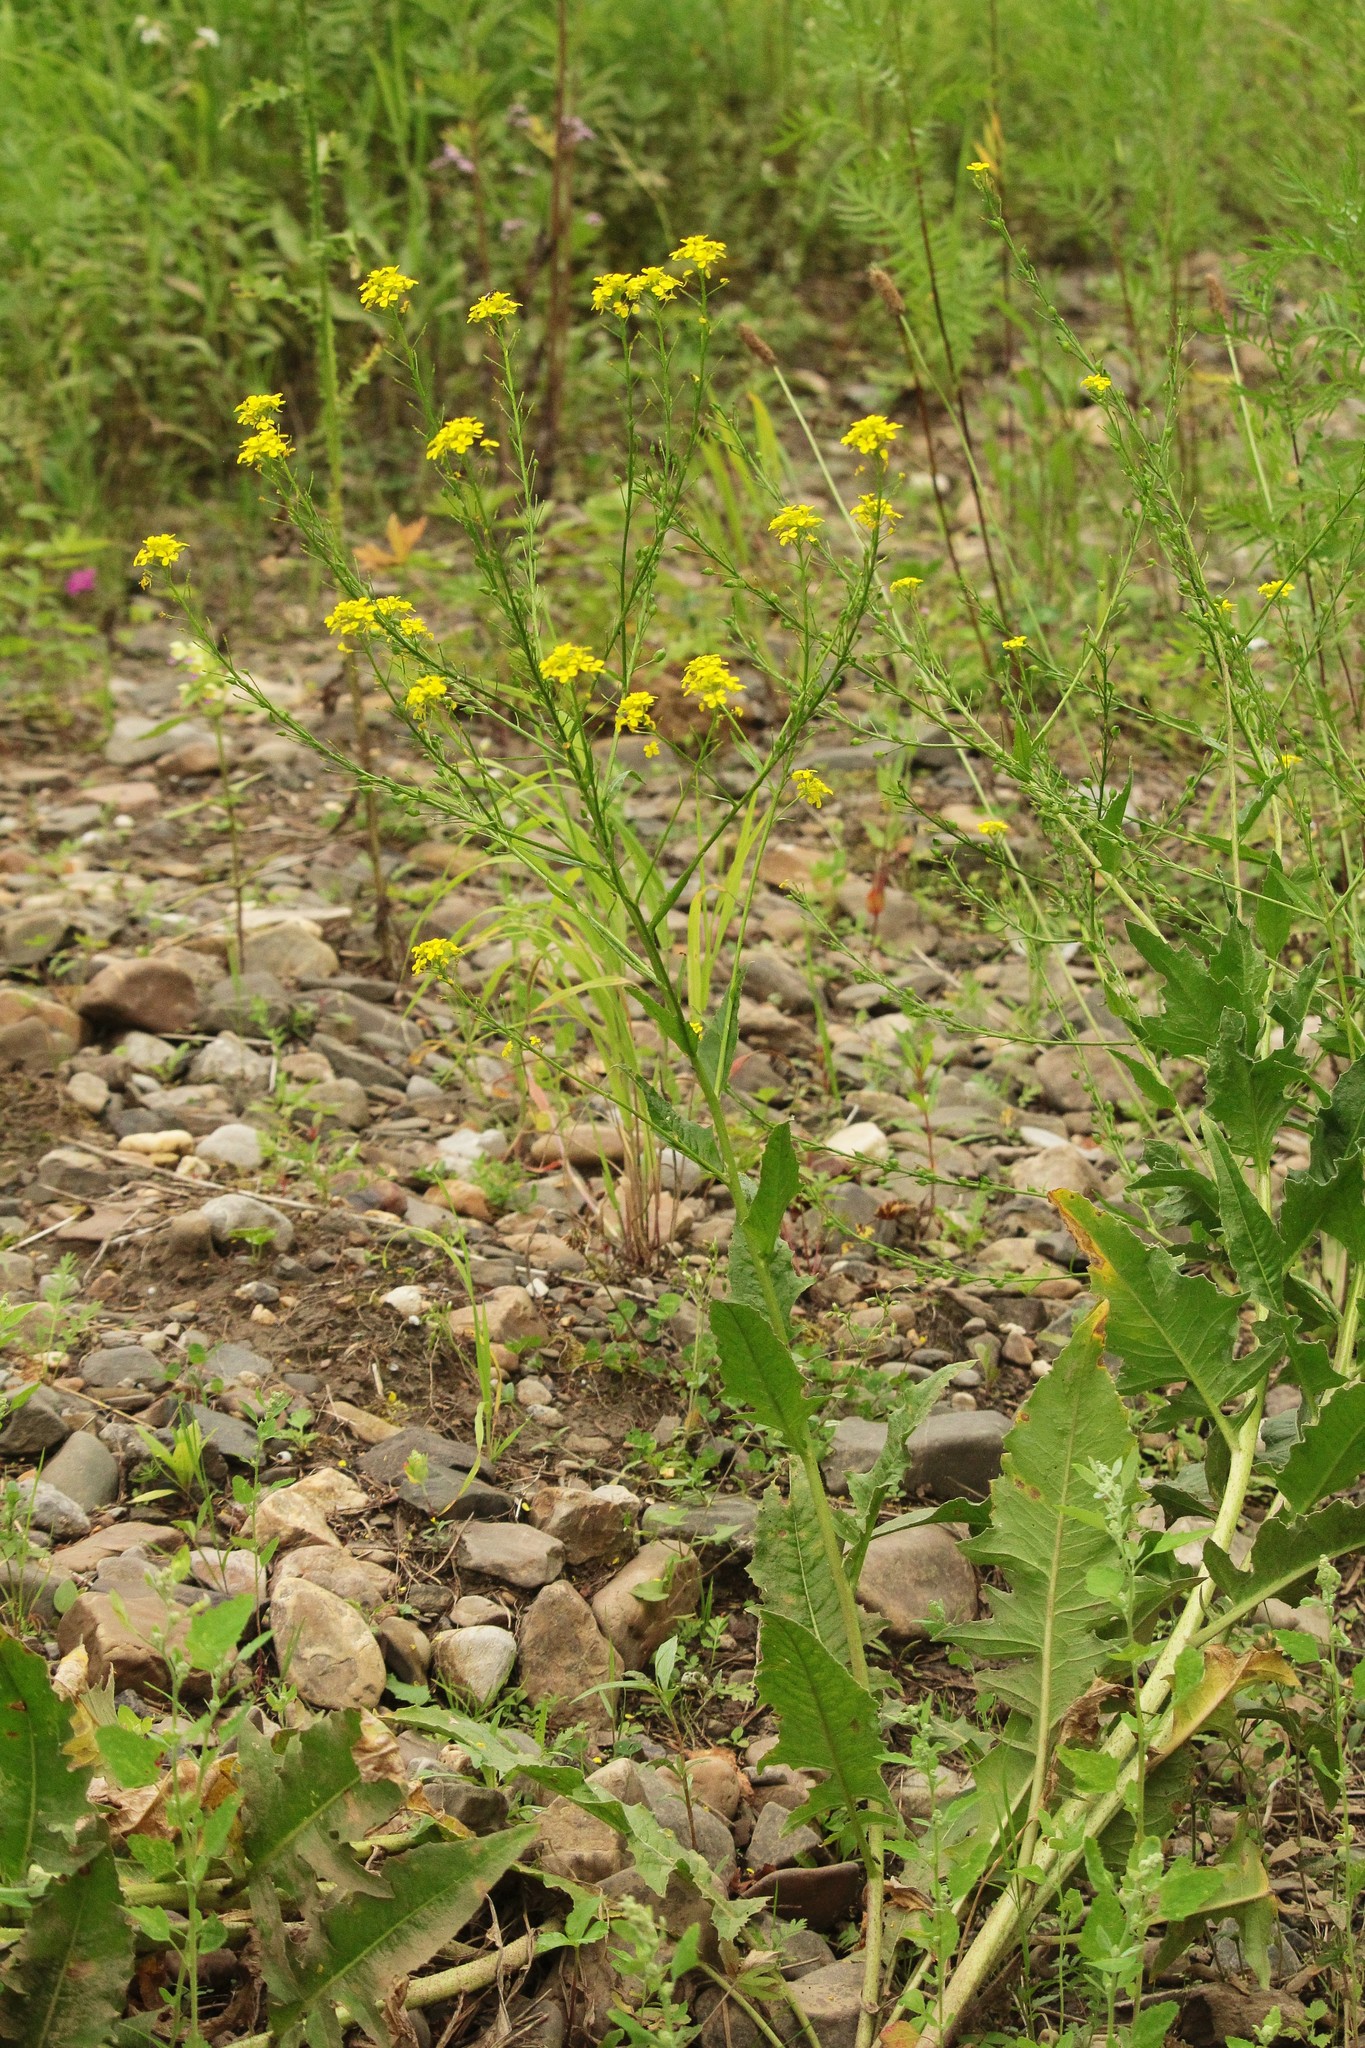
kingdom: Plantae
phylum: Tracheophyta
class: Magnoliopsida
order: Brassicales
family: Brassicaceae
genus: Bunias
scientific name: Bunias orientalis
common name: Warty-cabbage
